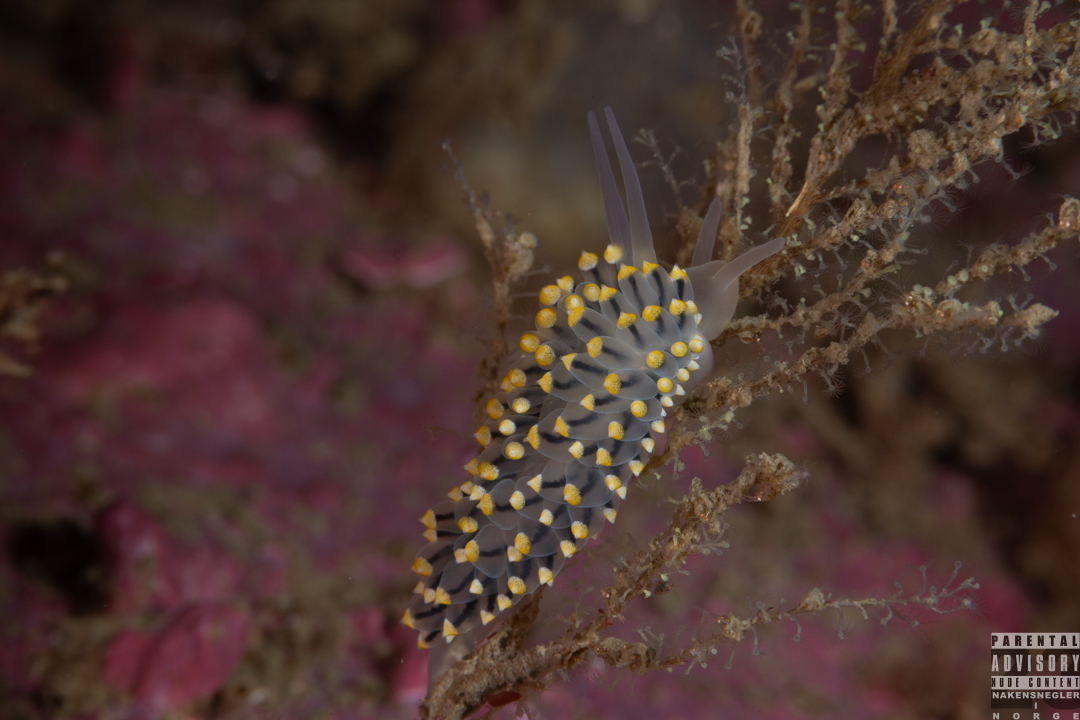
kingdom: Animalia
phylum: Mollusca
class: Gastropoda
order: Nudibranchia
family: Eubranchidae
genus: Eubranchus
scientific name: Eubranchus tricolor
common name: Painted balloon aeolis
